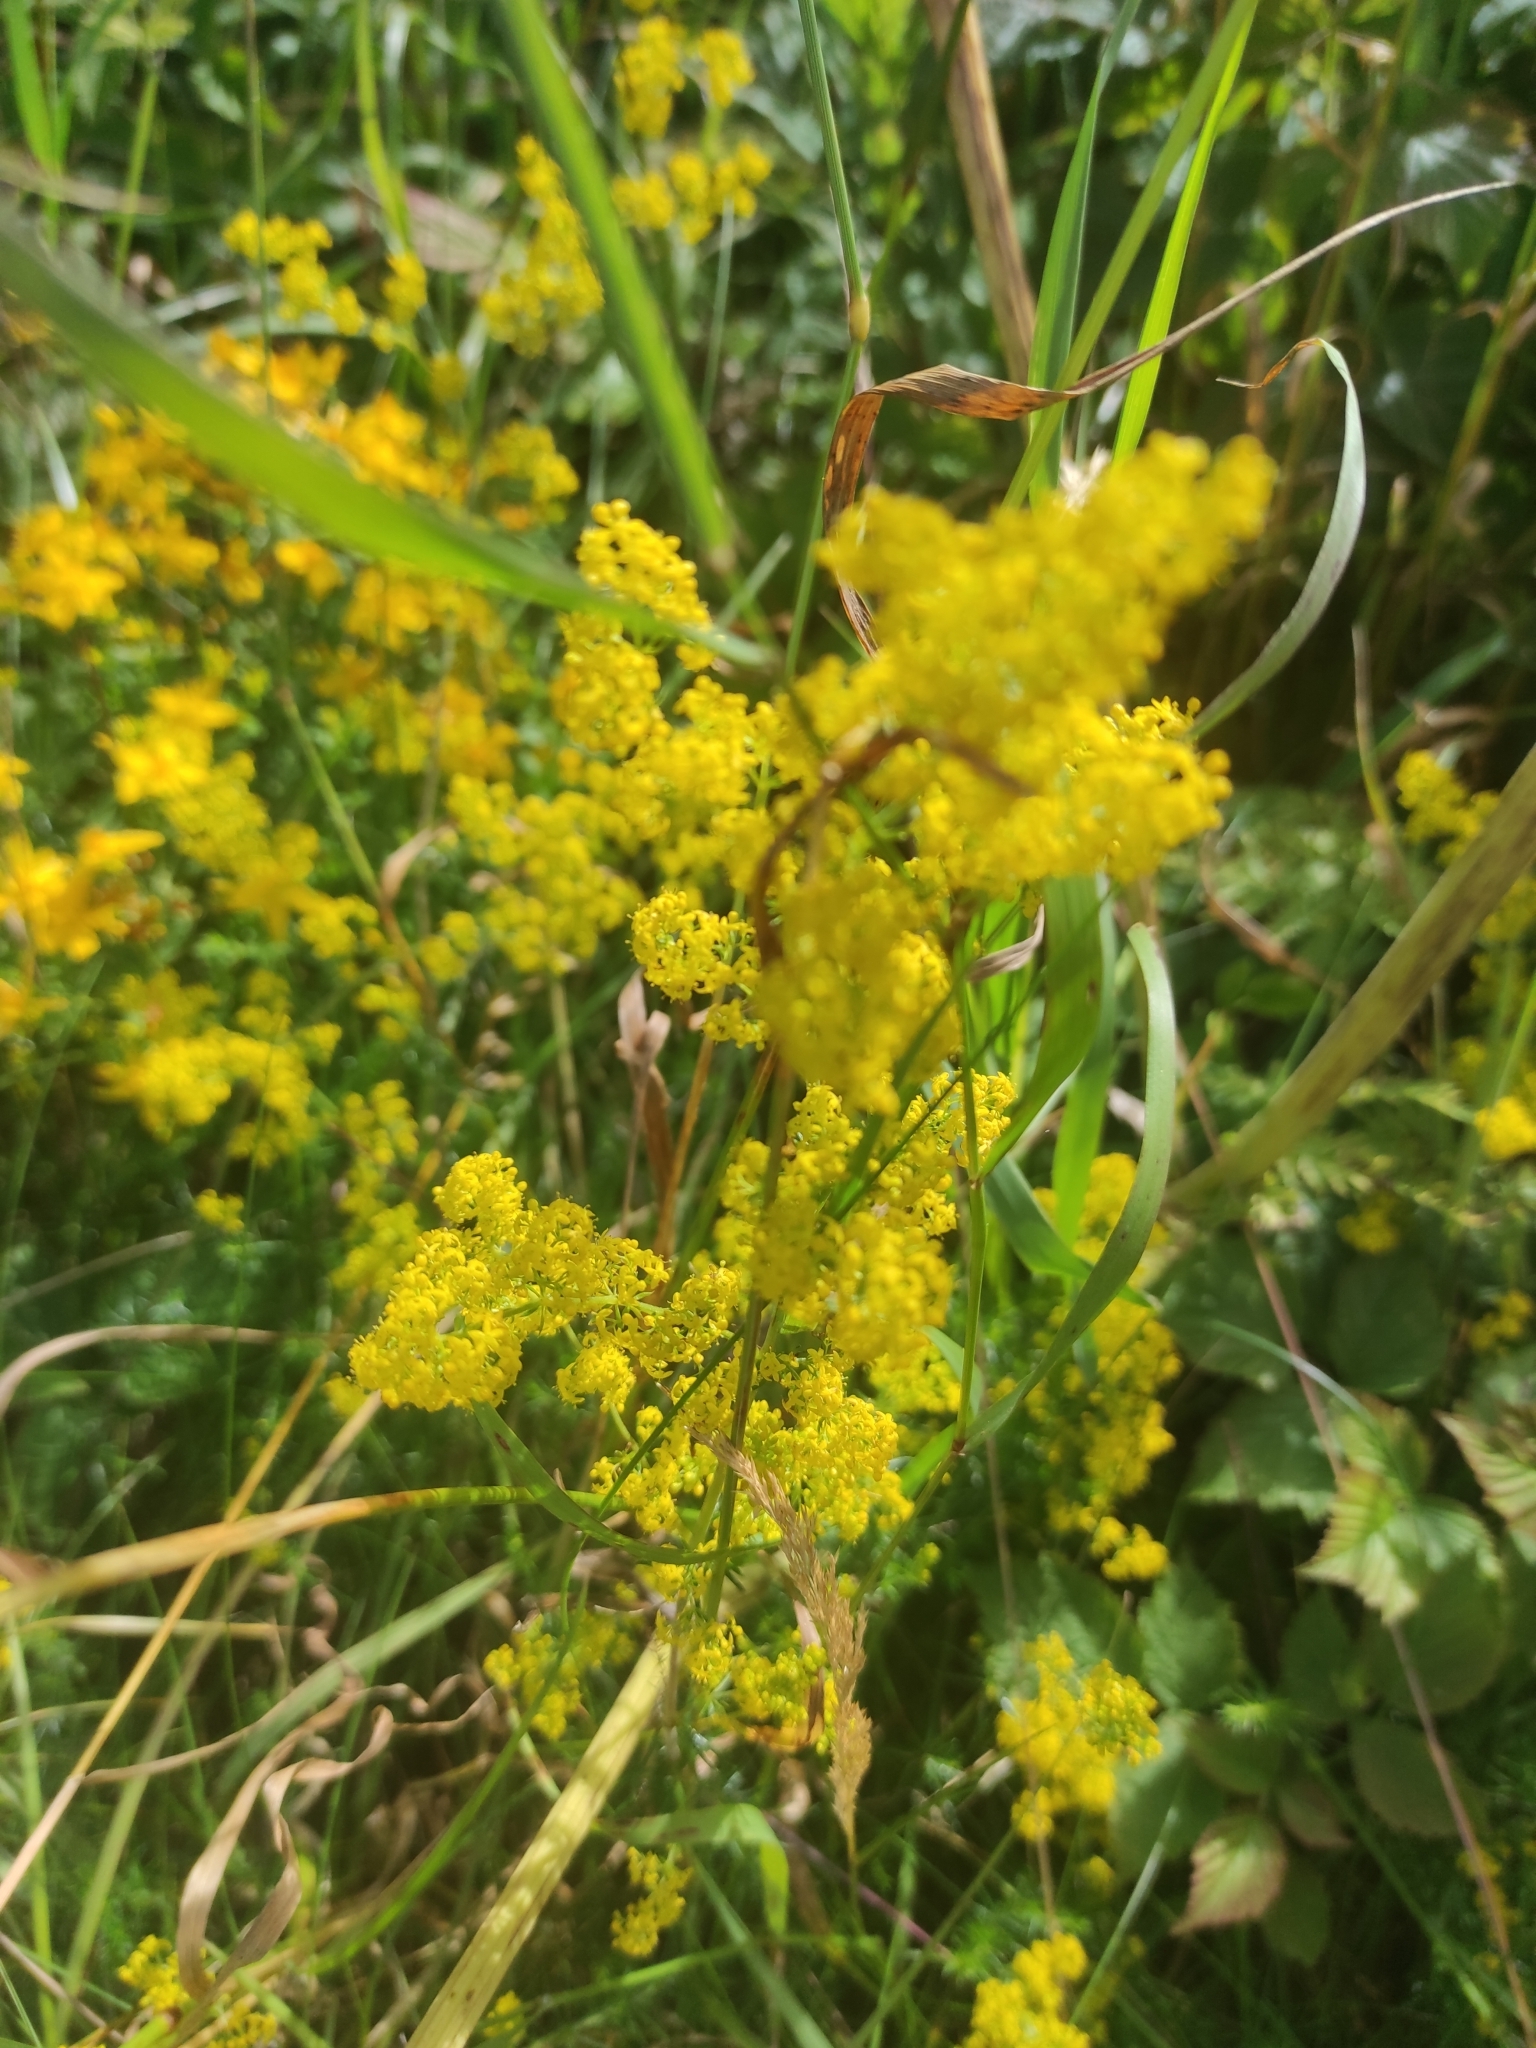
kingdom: Plantae
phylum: Tracheophyta
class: Magnoliopsida
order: Gentianales
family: Rubiaceae
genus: Galium
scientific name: Galium verum
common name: Lady's bedstraw
